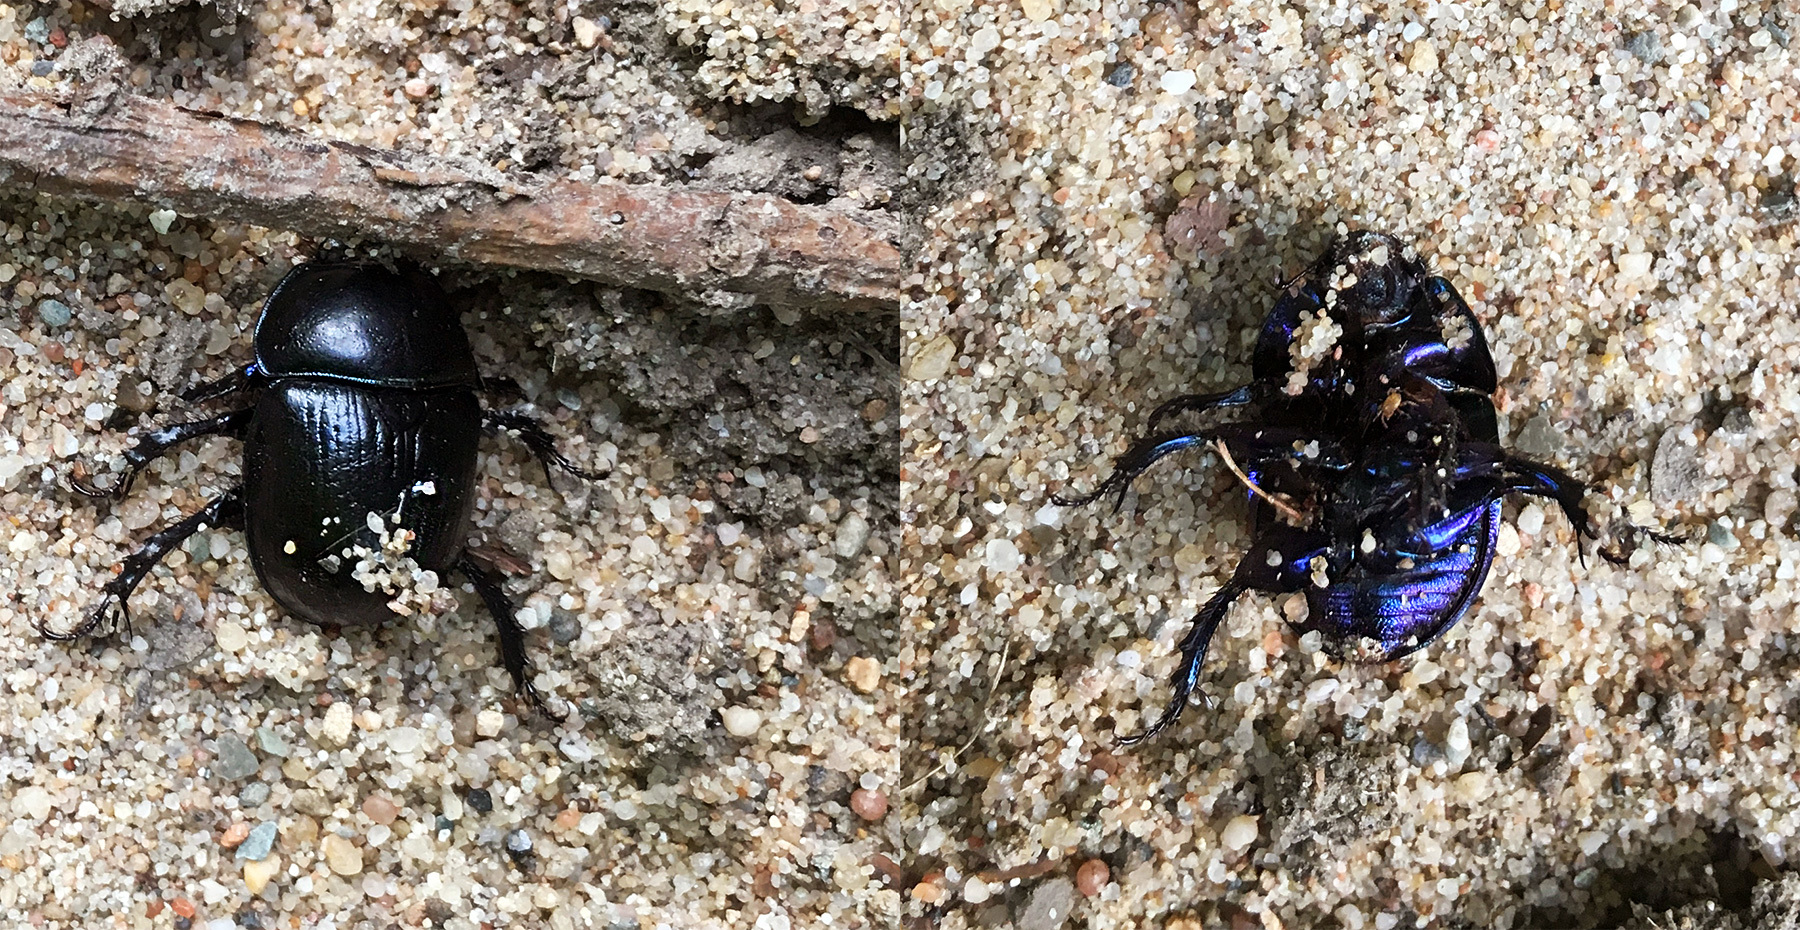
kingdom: Animalia
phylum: Arthropoda
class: Insecta
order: Coleoptera
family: Geotrupidae
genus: Anoplotrupes
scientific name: Anoplotrupes stercorosus
